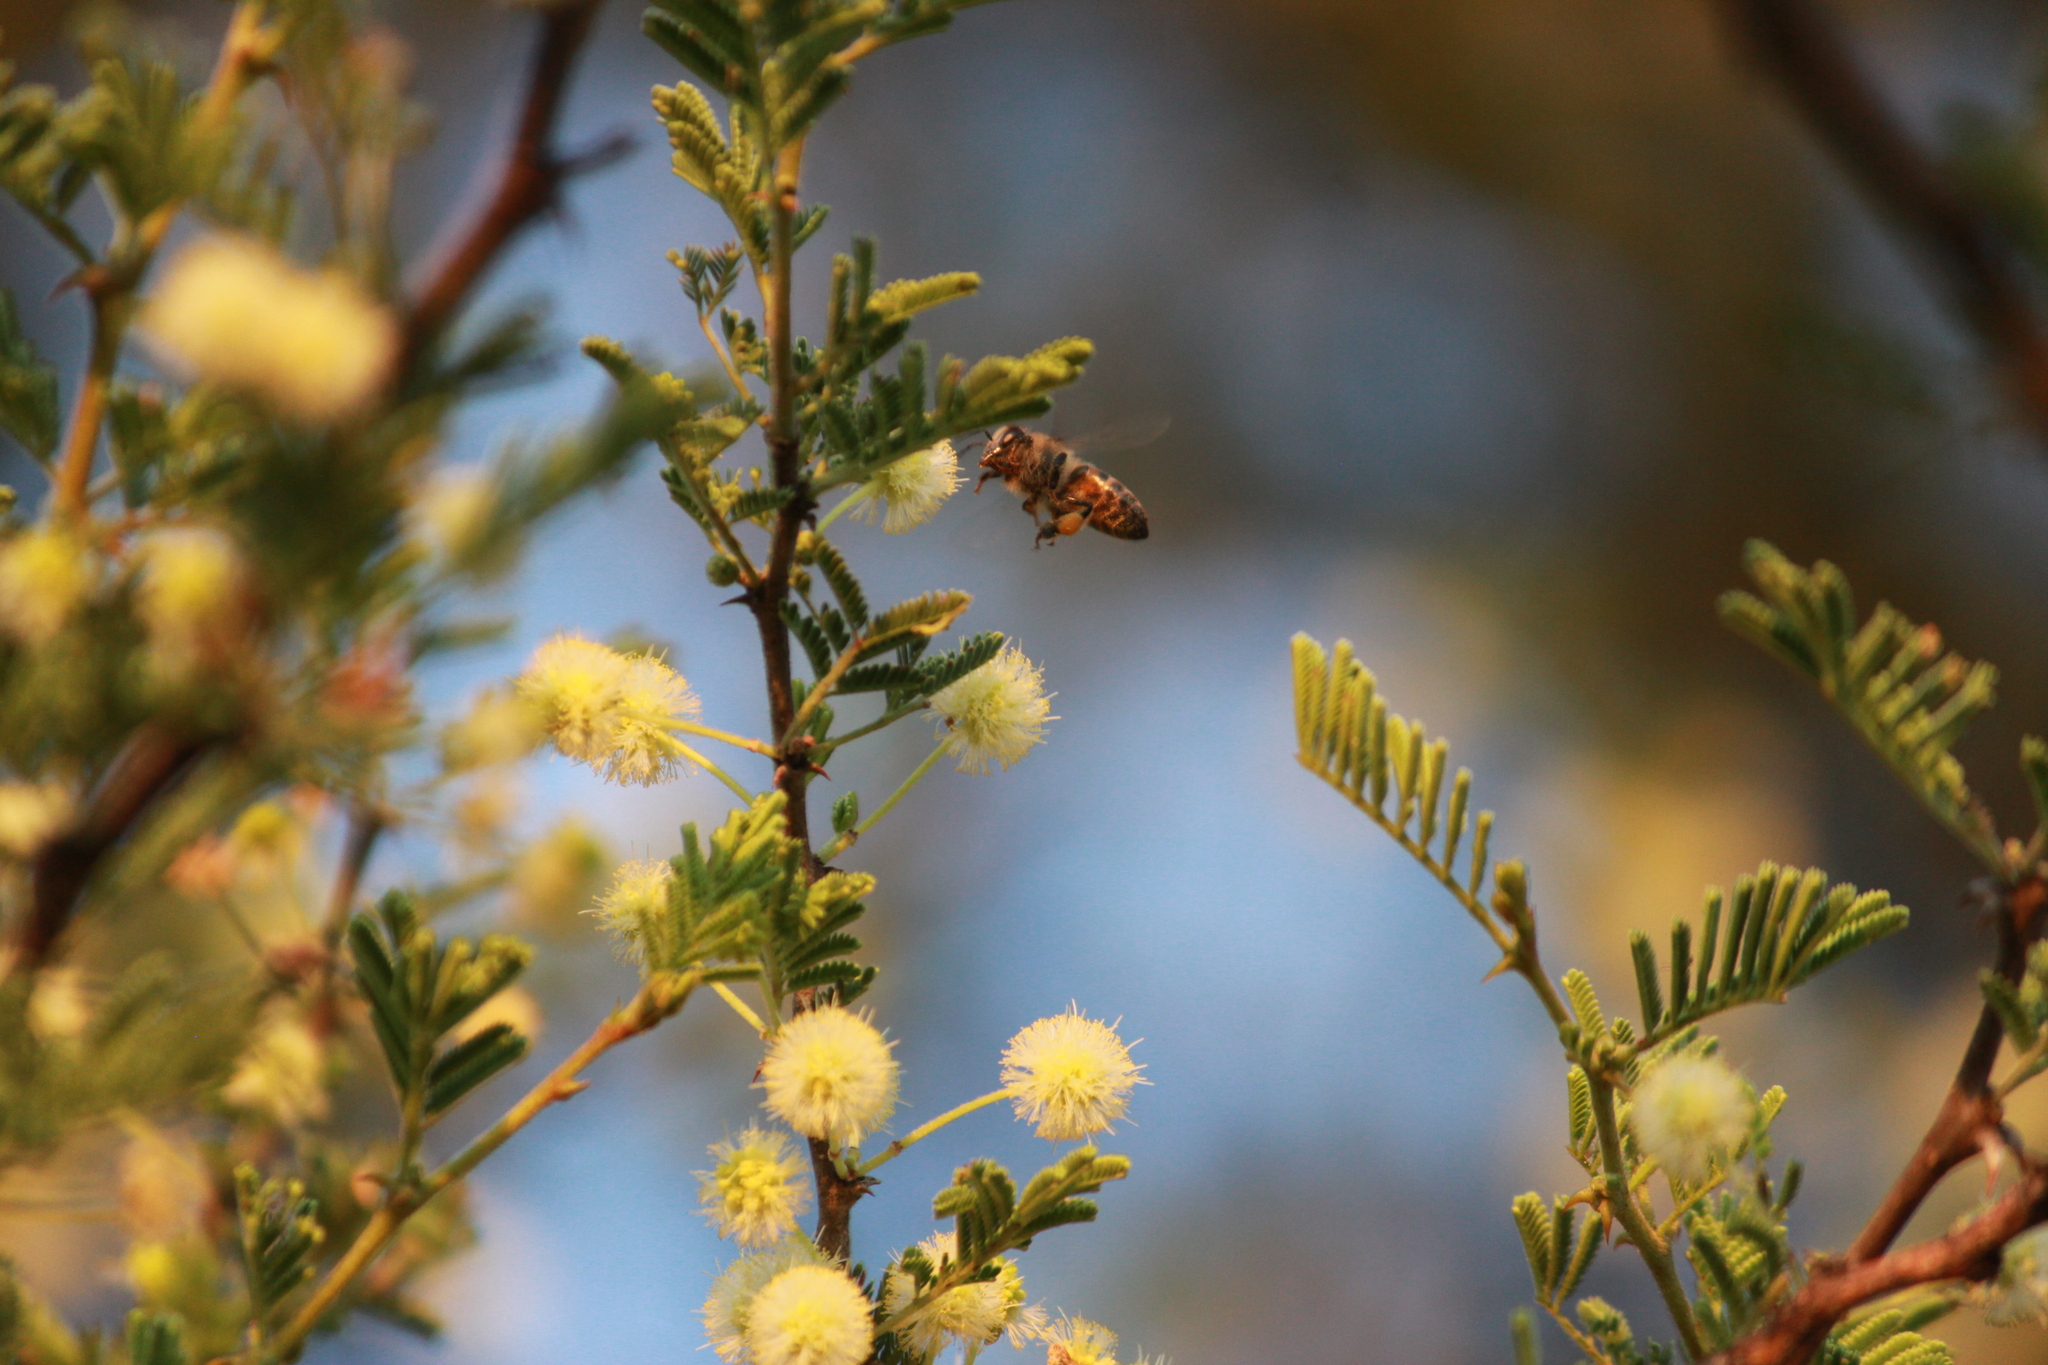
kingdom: Animalia
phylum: Arthropoda
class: Insecta
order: Hymenoptera
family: Apidae
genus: Apis
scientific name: Apis mellifera
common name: Honey bee
